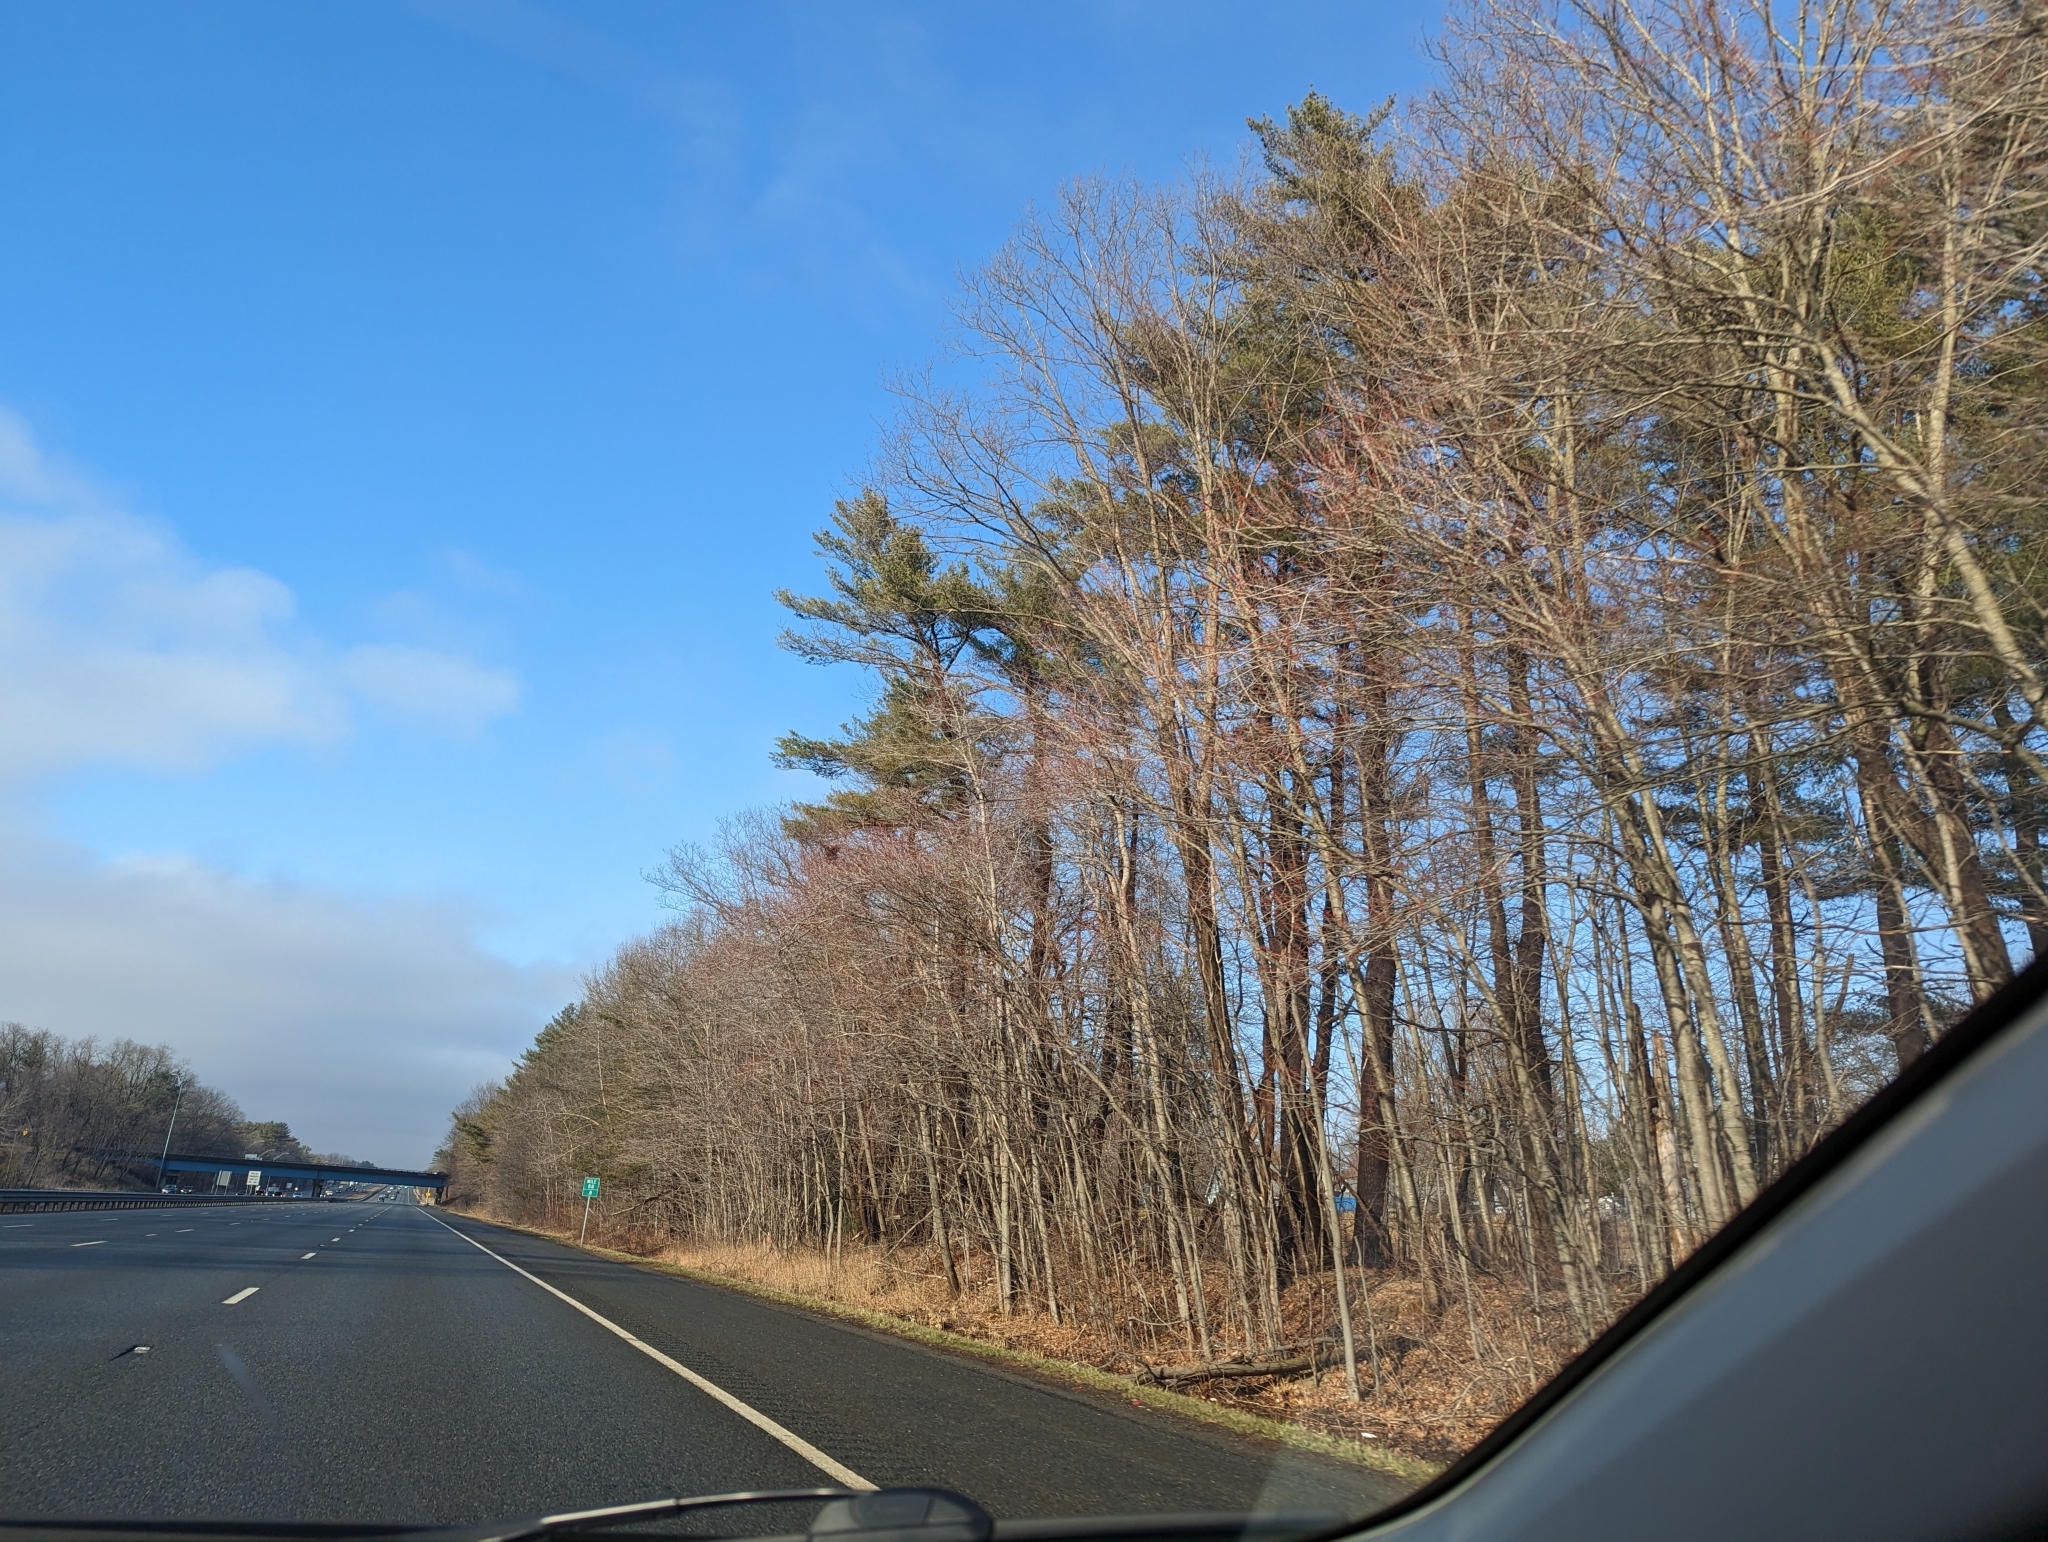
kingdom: Plantae
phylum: Tracheophyta
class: Pinopsida
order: Pinales
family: Pinaceae
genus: Pinus
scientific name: Pinus strobus
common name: Weymouth pine
